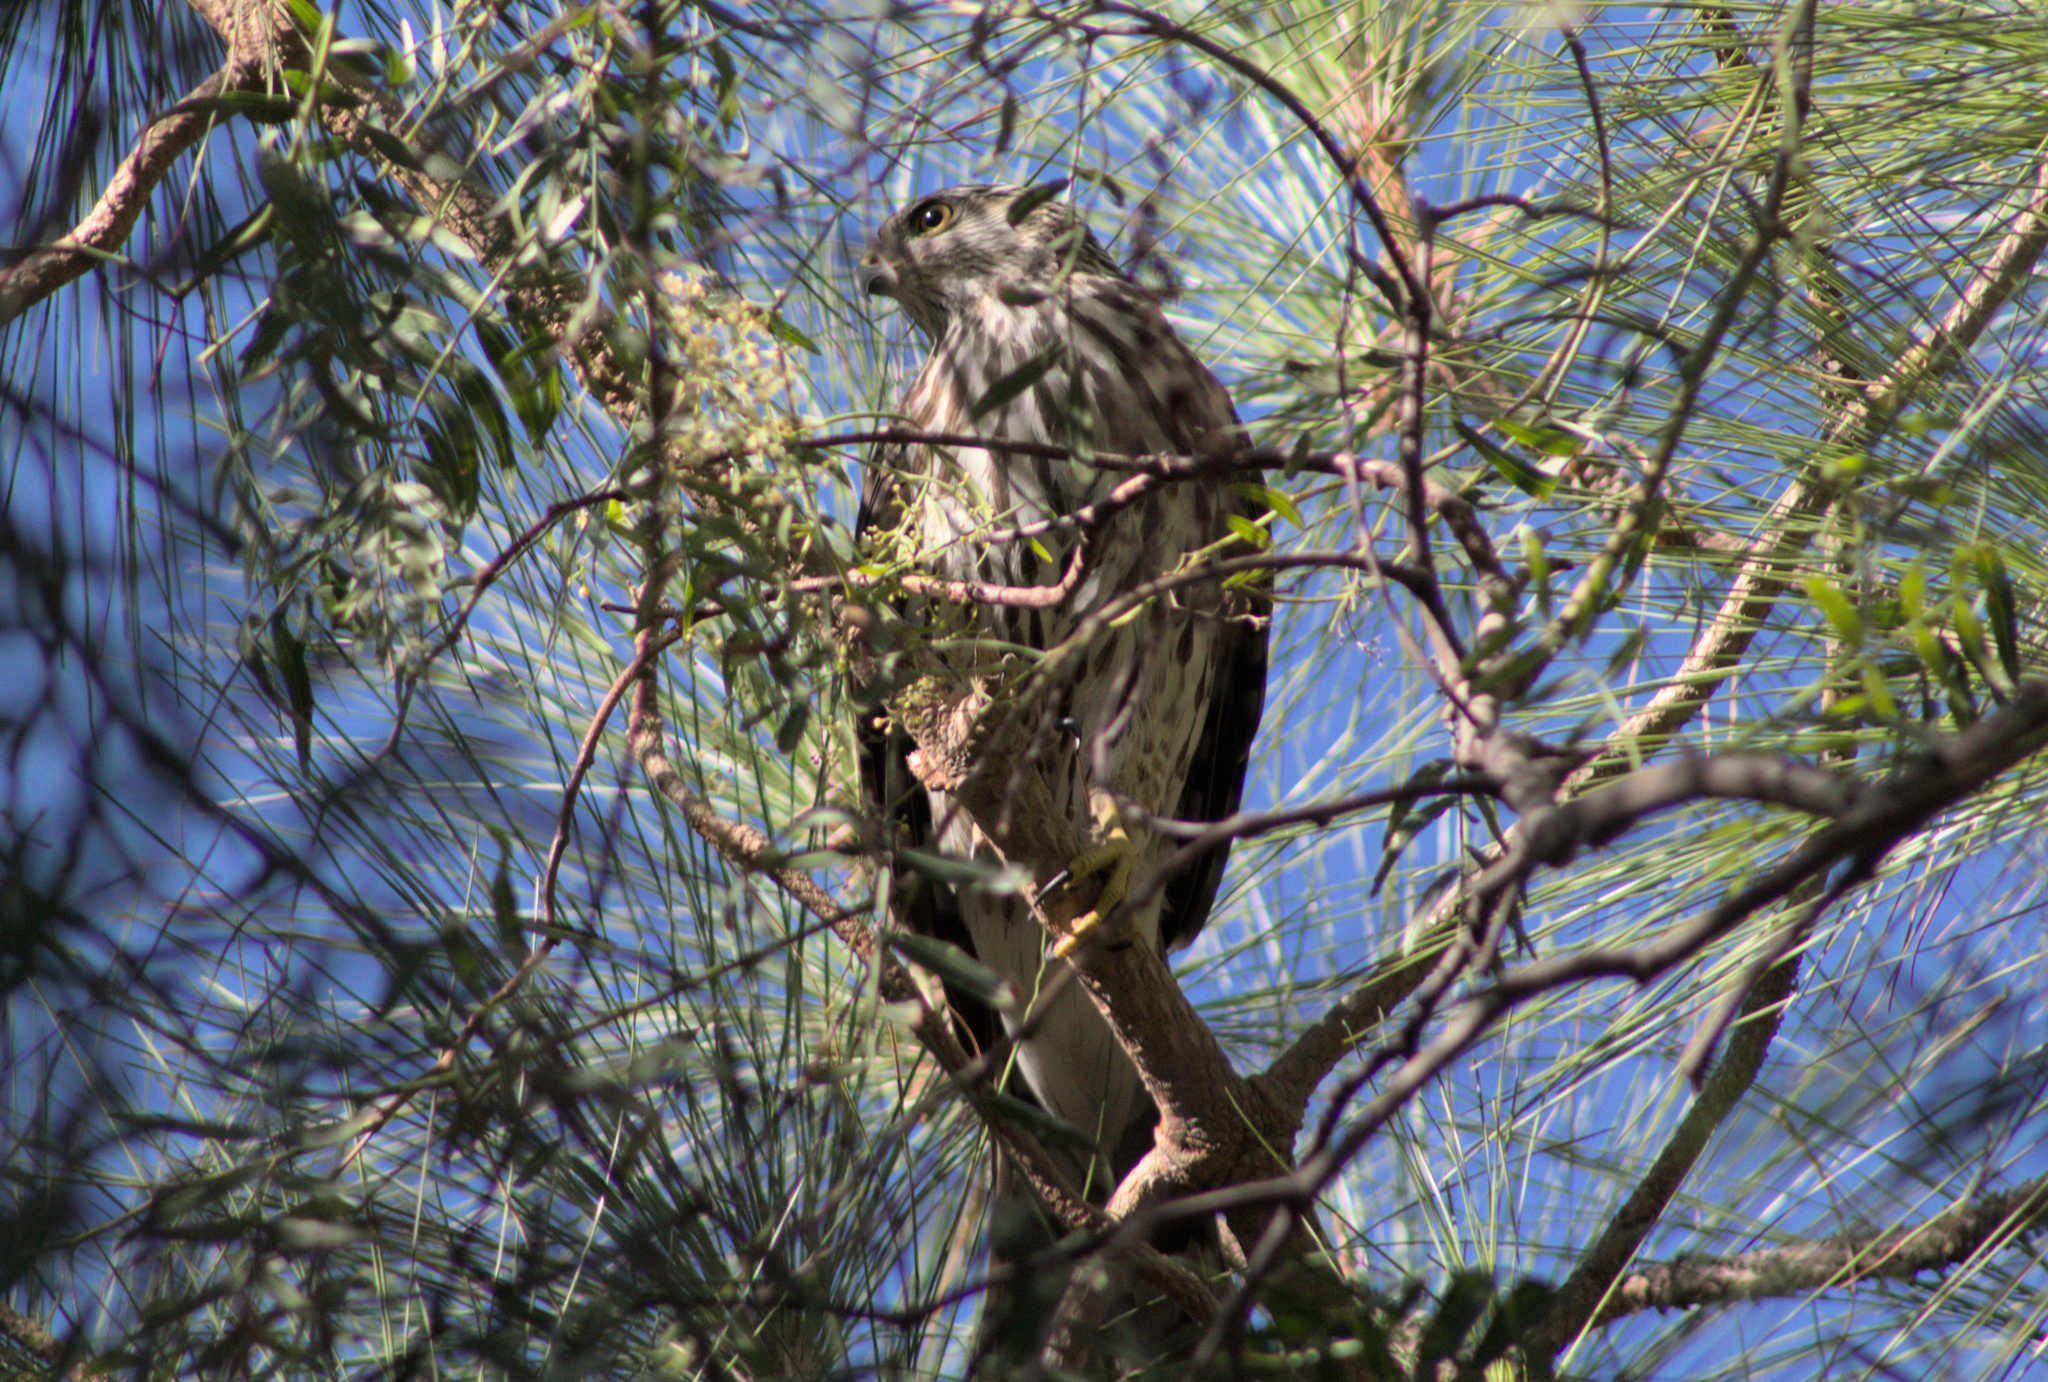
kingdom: Animalia
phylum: Chordata
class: Aves
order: Accipitriformes
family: Accipitridae
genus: Accipiter
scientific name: Accipiter cooperii
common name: Cooper's hawk
